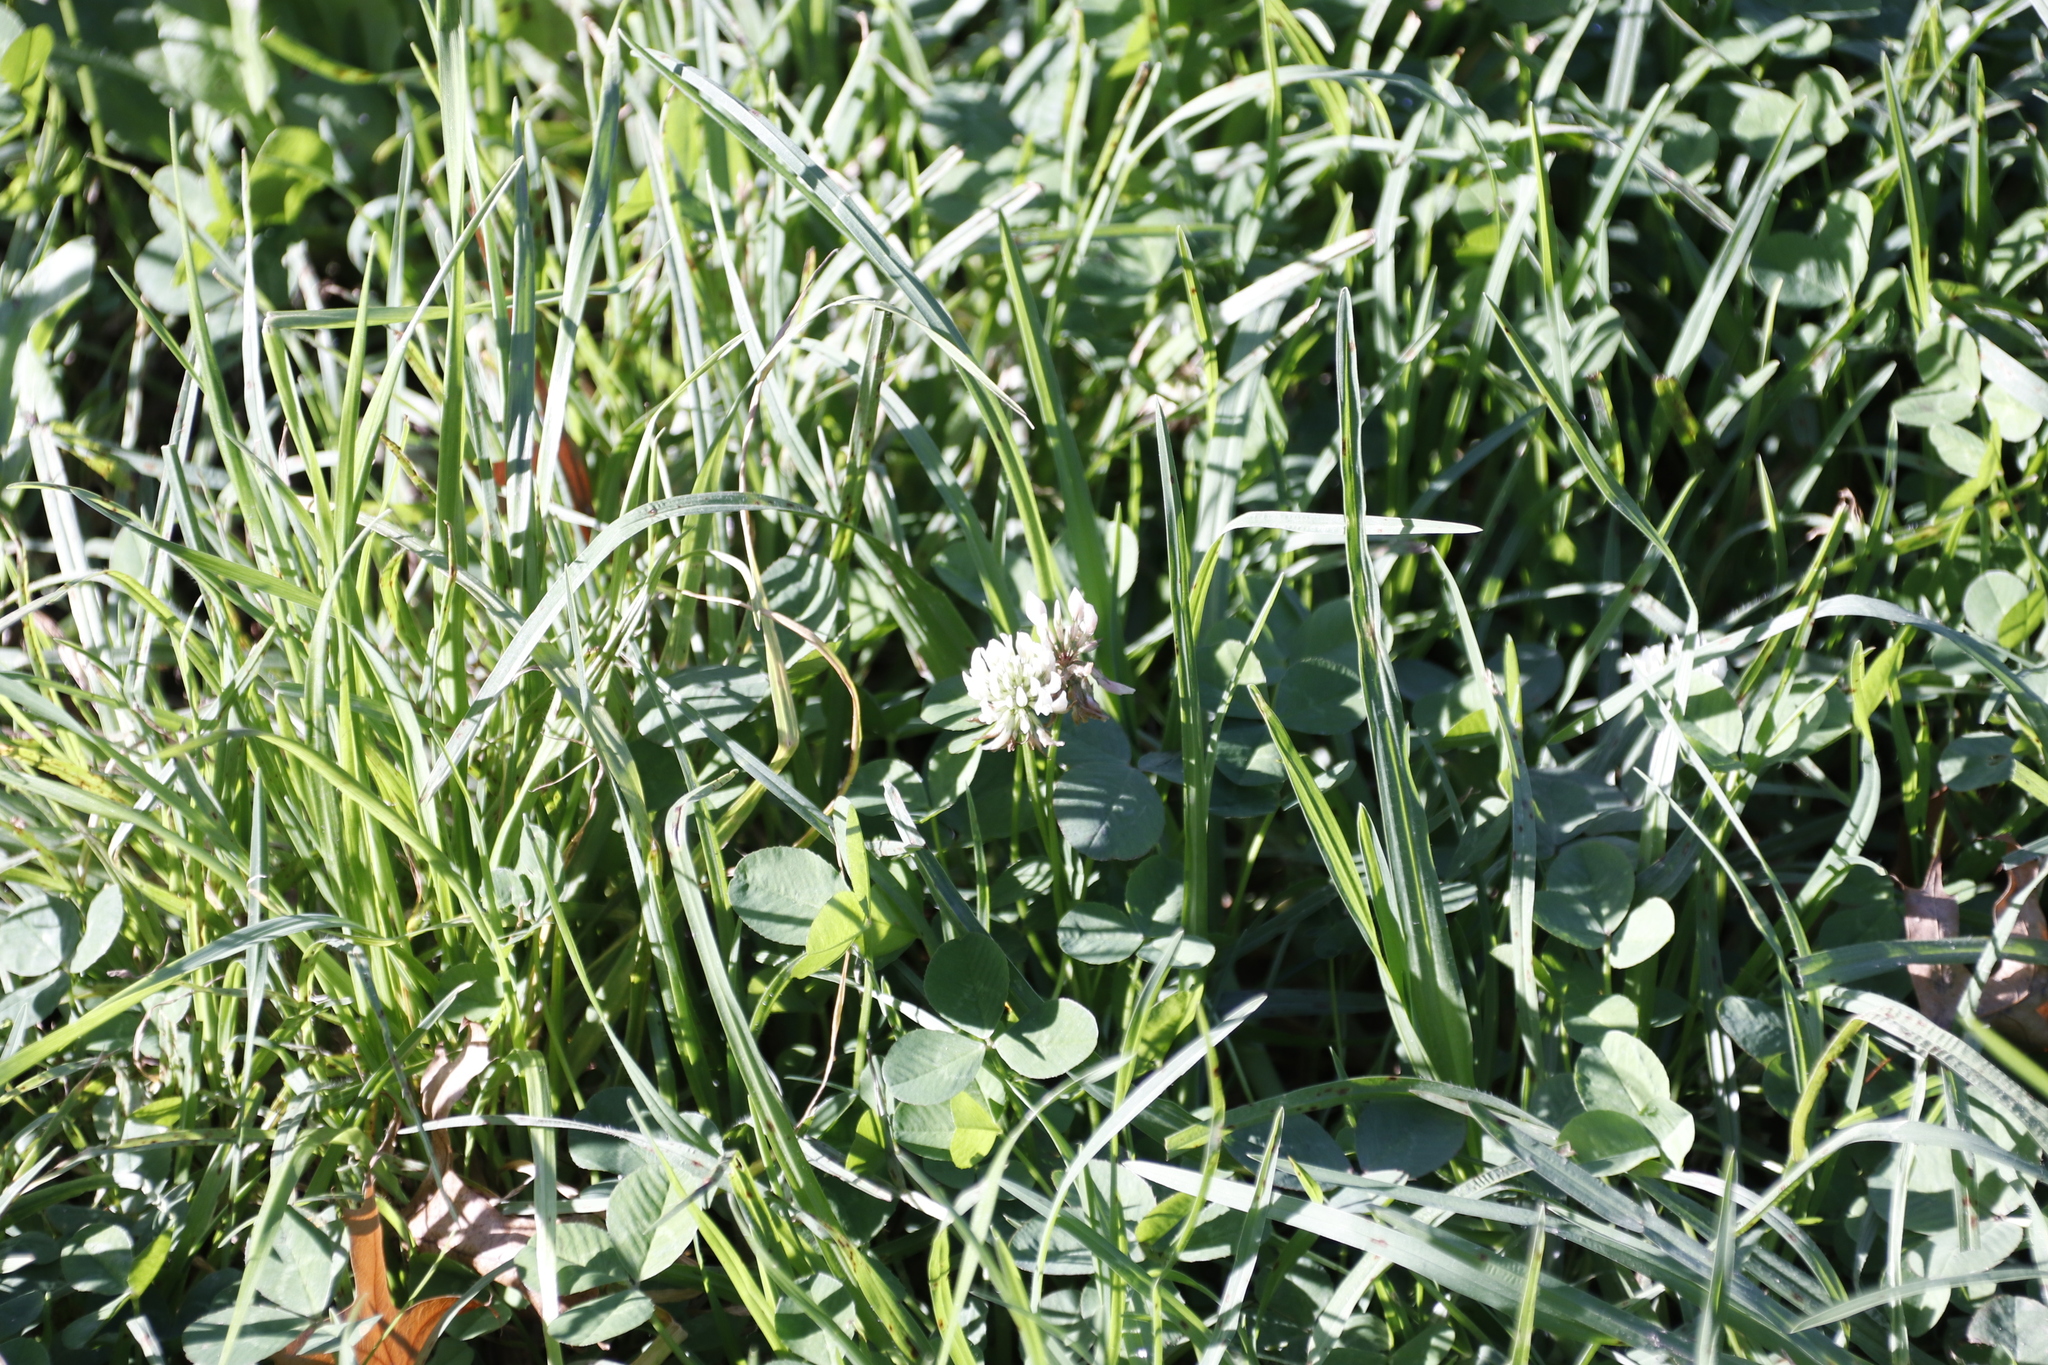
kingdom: Plantae
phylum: Tracheophyta
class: Magnoliopsida
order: Fabales
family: Fabaceae
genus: Trifolium
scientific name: Trifolium repens
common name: White clover
